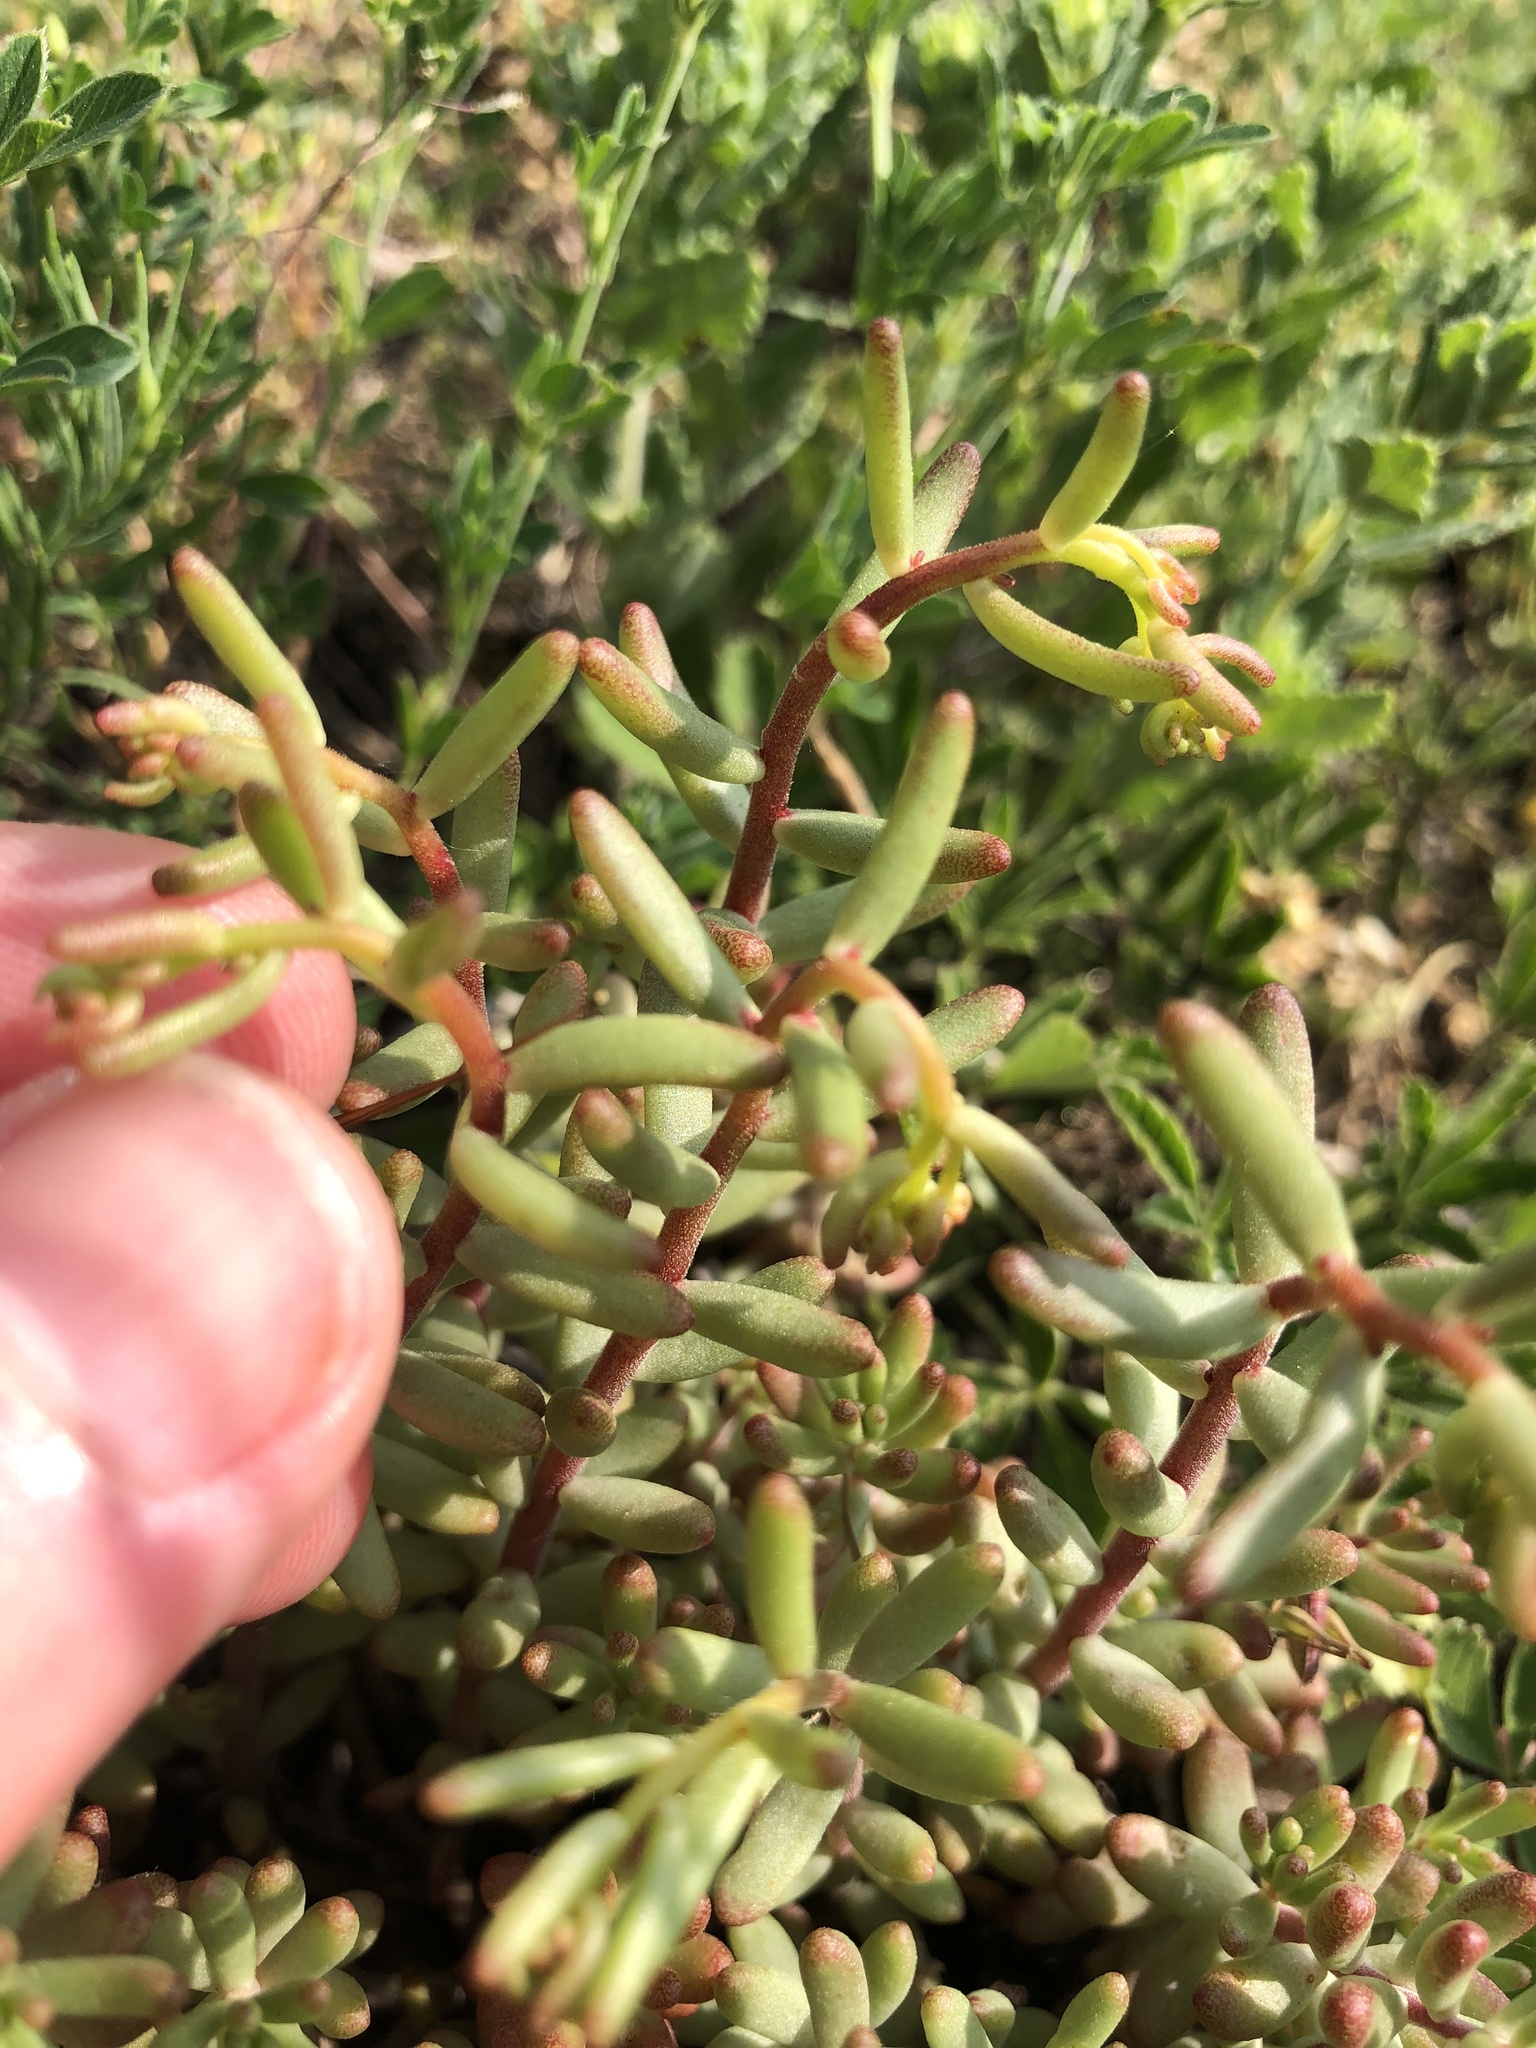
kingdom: Plantae
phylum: Tracheophyta
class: Magnoliopsida
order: Saxifragales
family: Crassulaceae
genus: Sedum
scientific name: Sedum album
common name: White stonecrop
